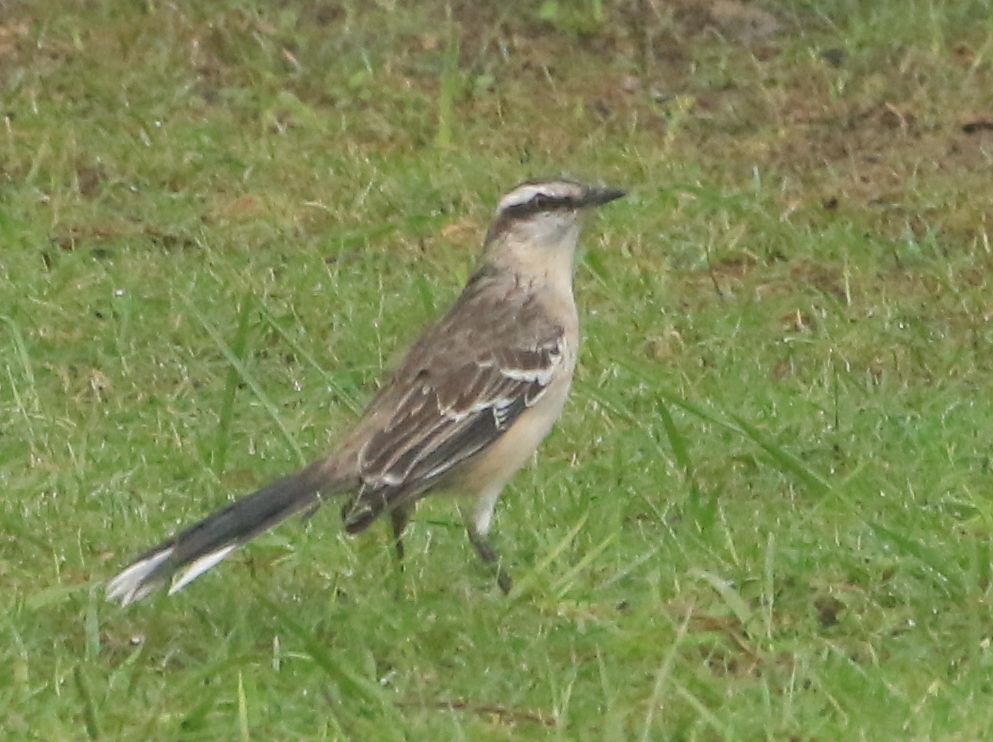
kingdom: Animalia
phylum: Chordata
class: Aves
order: Passeriformes
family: Mimidae
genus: Mimus
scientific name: Mimus saturninus
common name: Chalk-browed mockingbird
